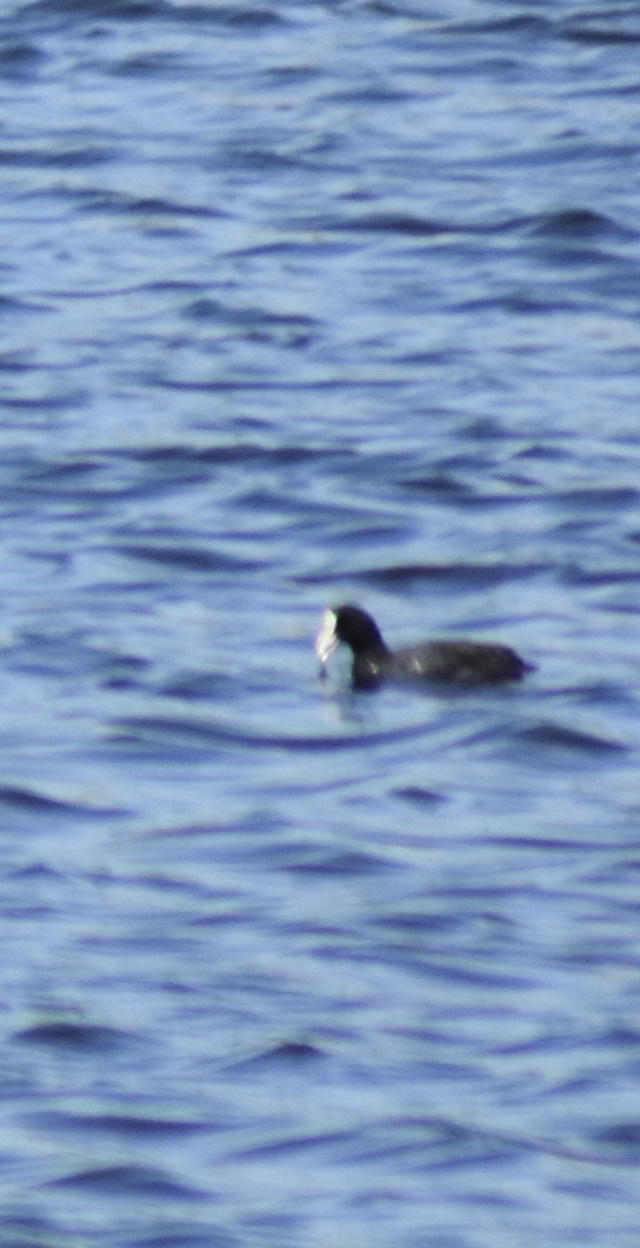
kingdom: Animalia
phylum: Chordata
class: Aves
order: Gruiformes
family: Rallidae
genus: Fulica
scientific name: Fulica atra
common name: Eurasian coot
